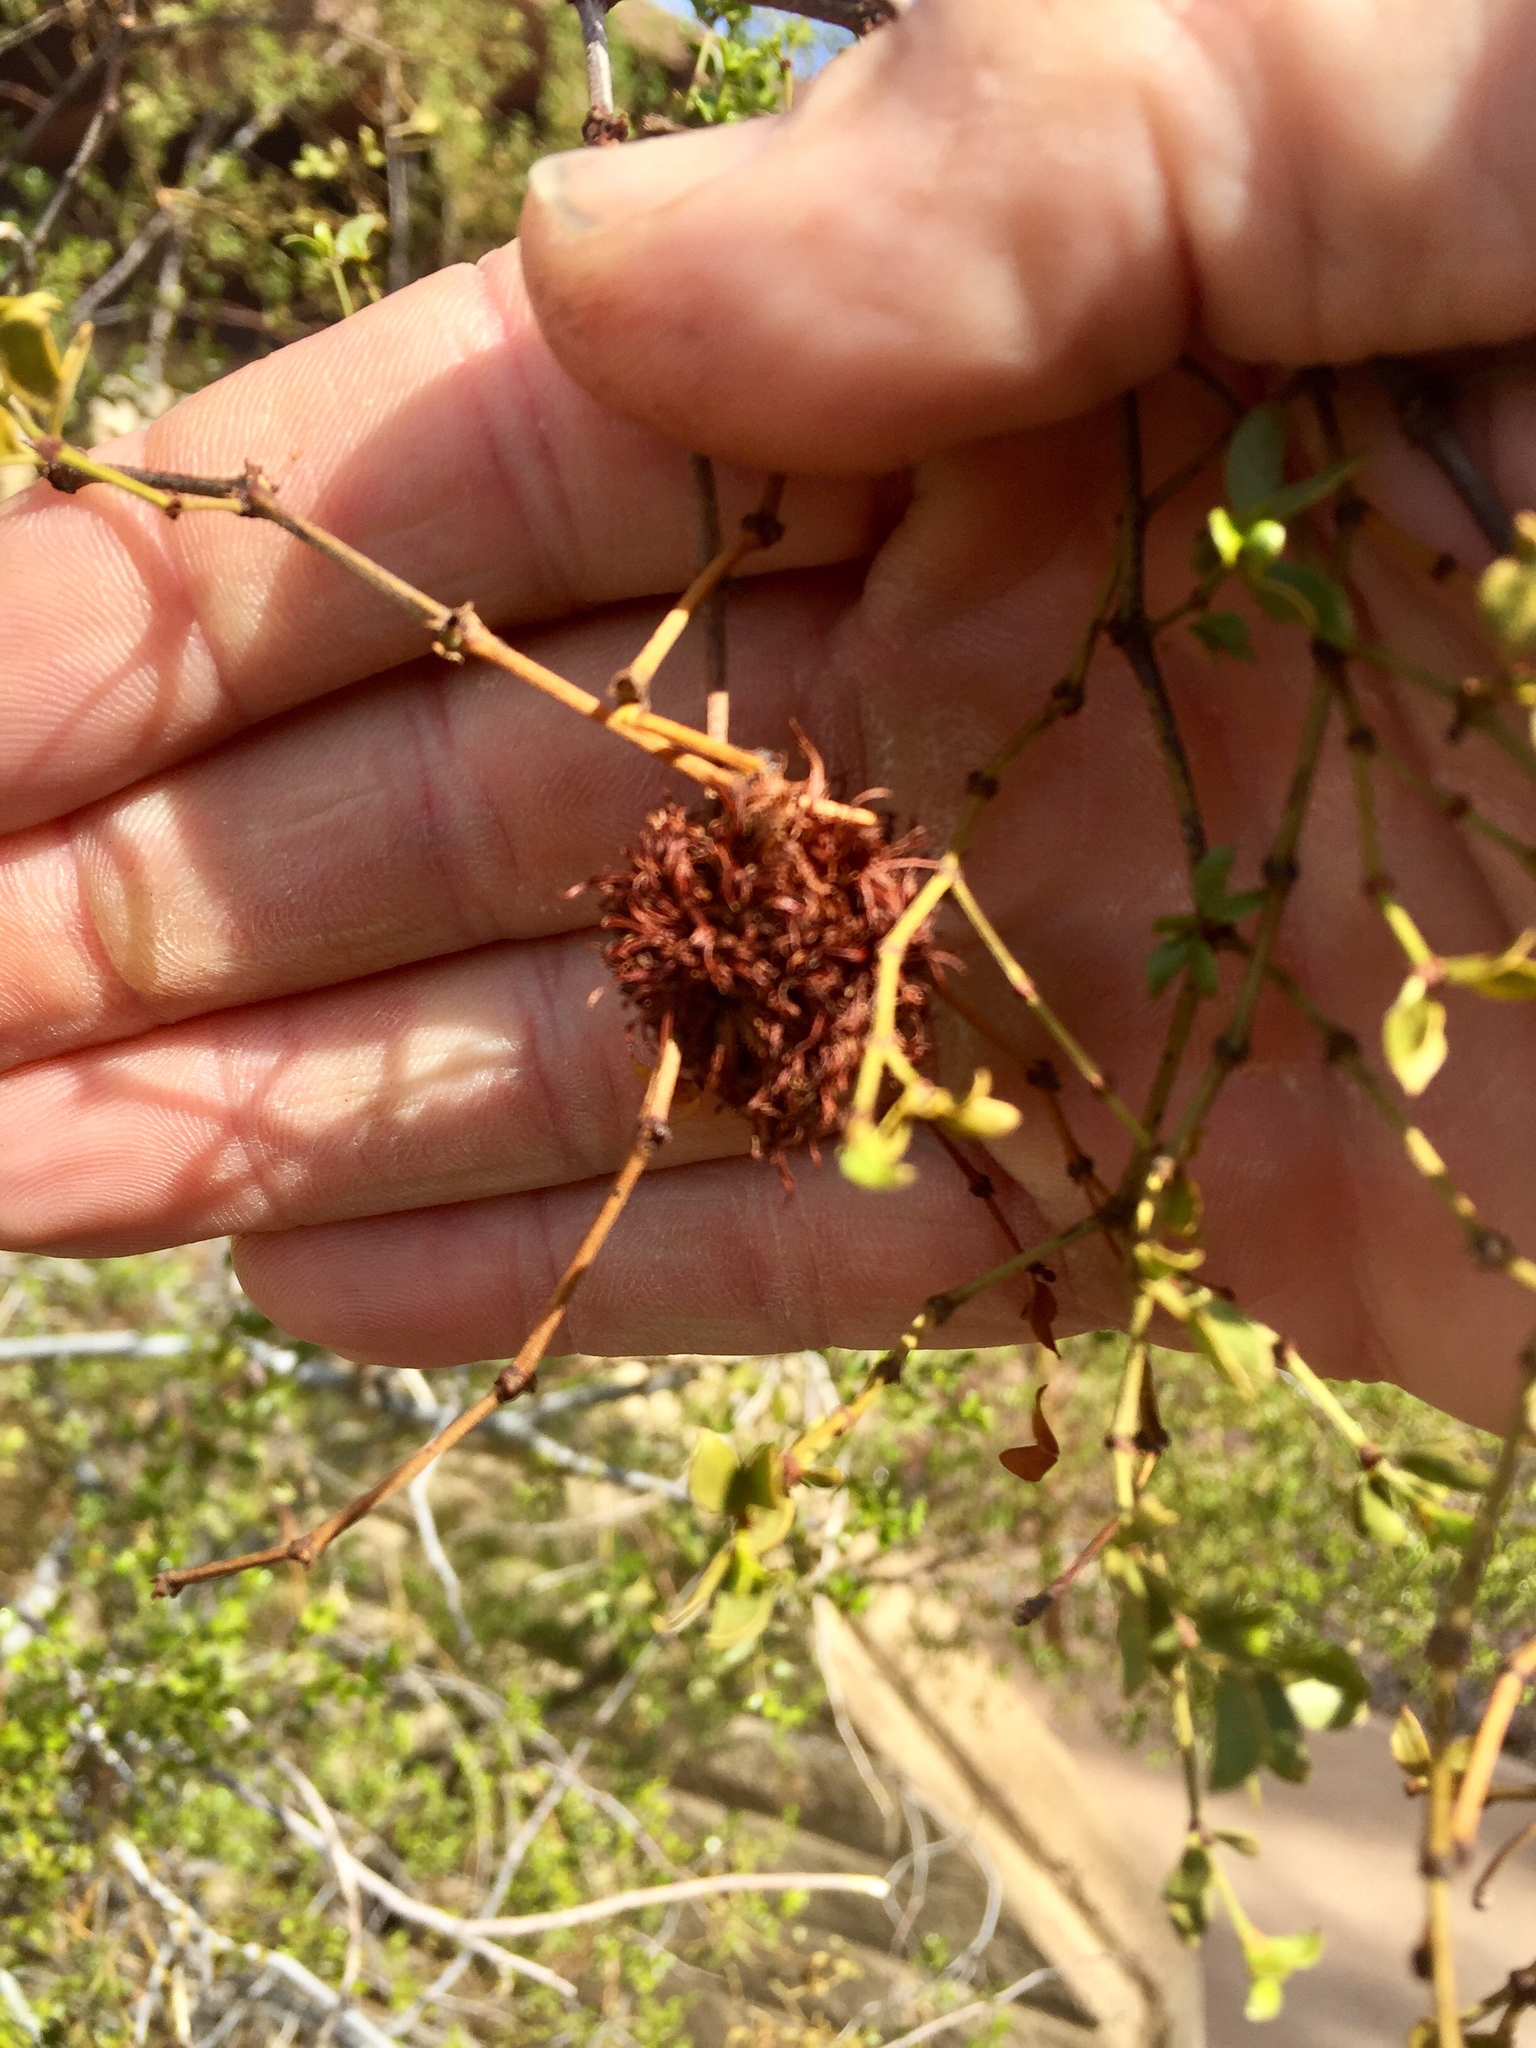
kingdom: Animalia
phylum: Arthropoda
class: Insecta
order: Diptera
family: Cecidomyiidae
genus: Asphondylia
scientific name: Asphondylia auripila
